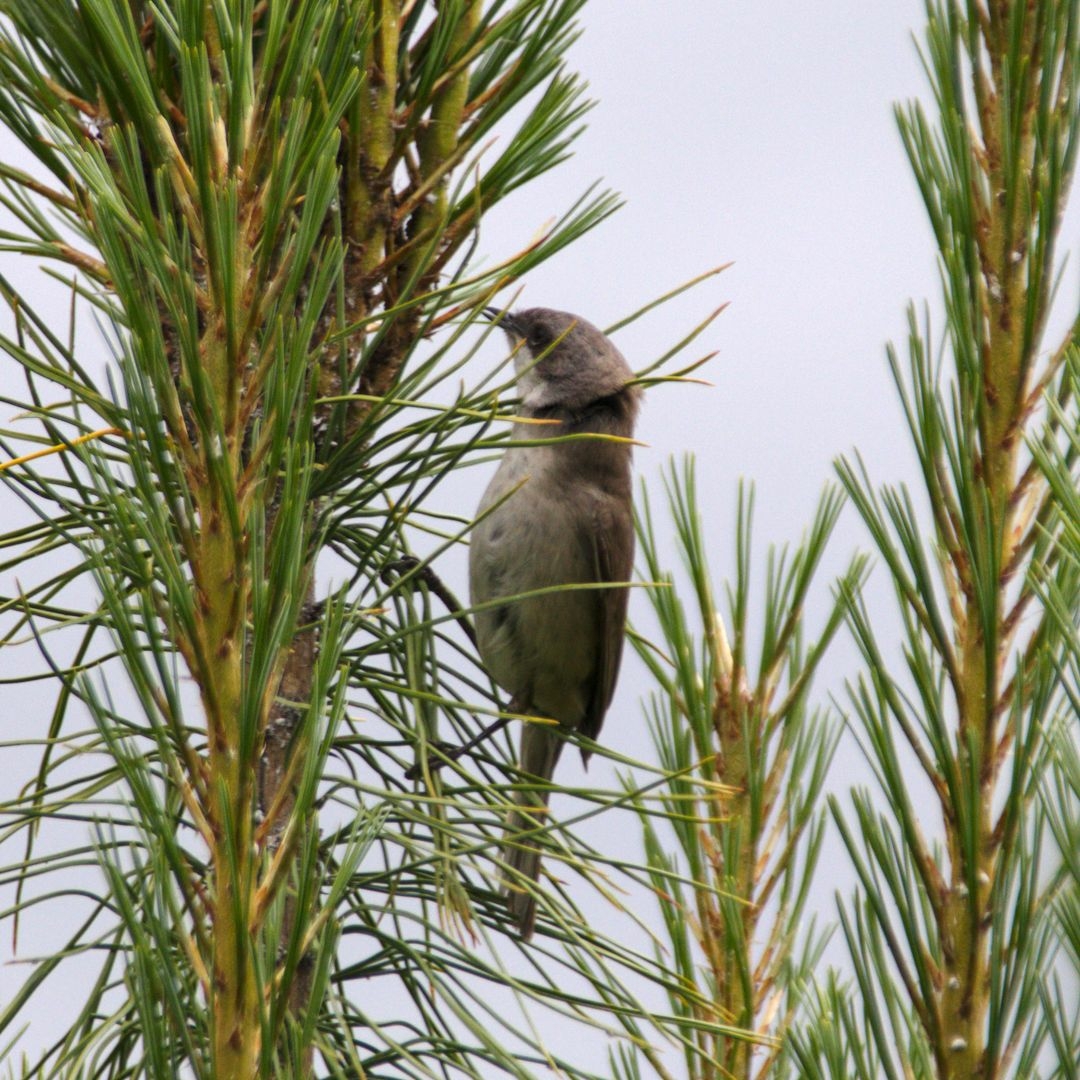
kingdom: Animalia
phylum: Chordata
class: Aves
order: Passeriformes
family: Sylviidae
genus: Sylvia
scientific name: Sylvia curruca
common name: Lesser whitethroat
